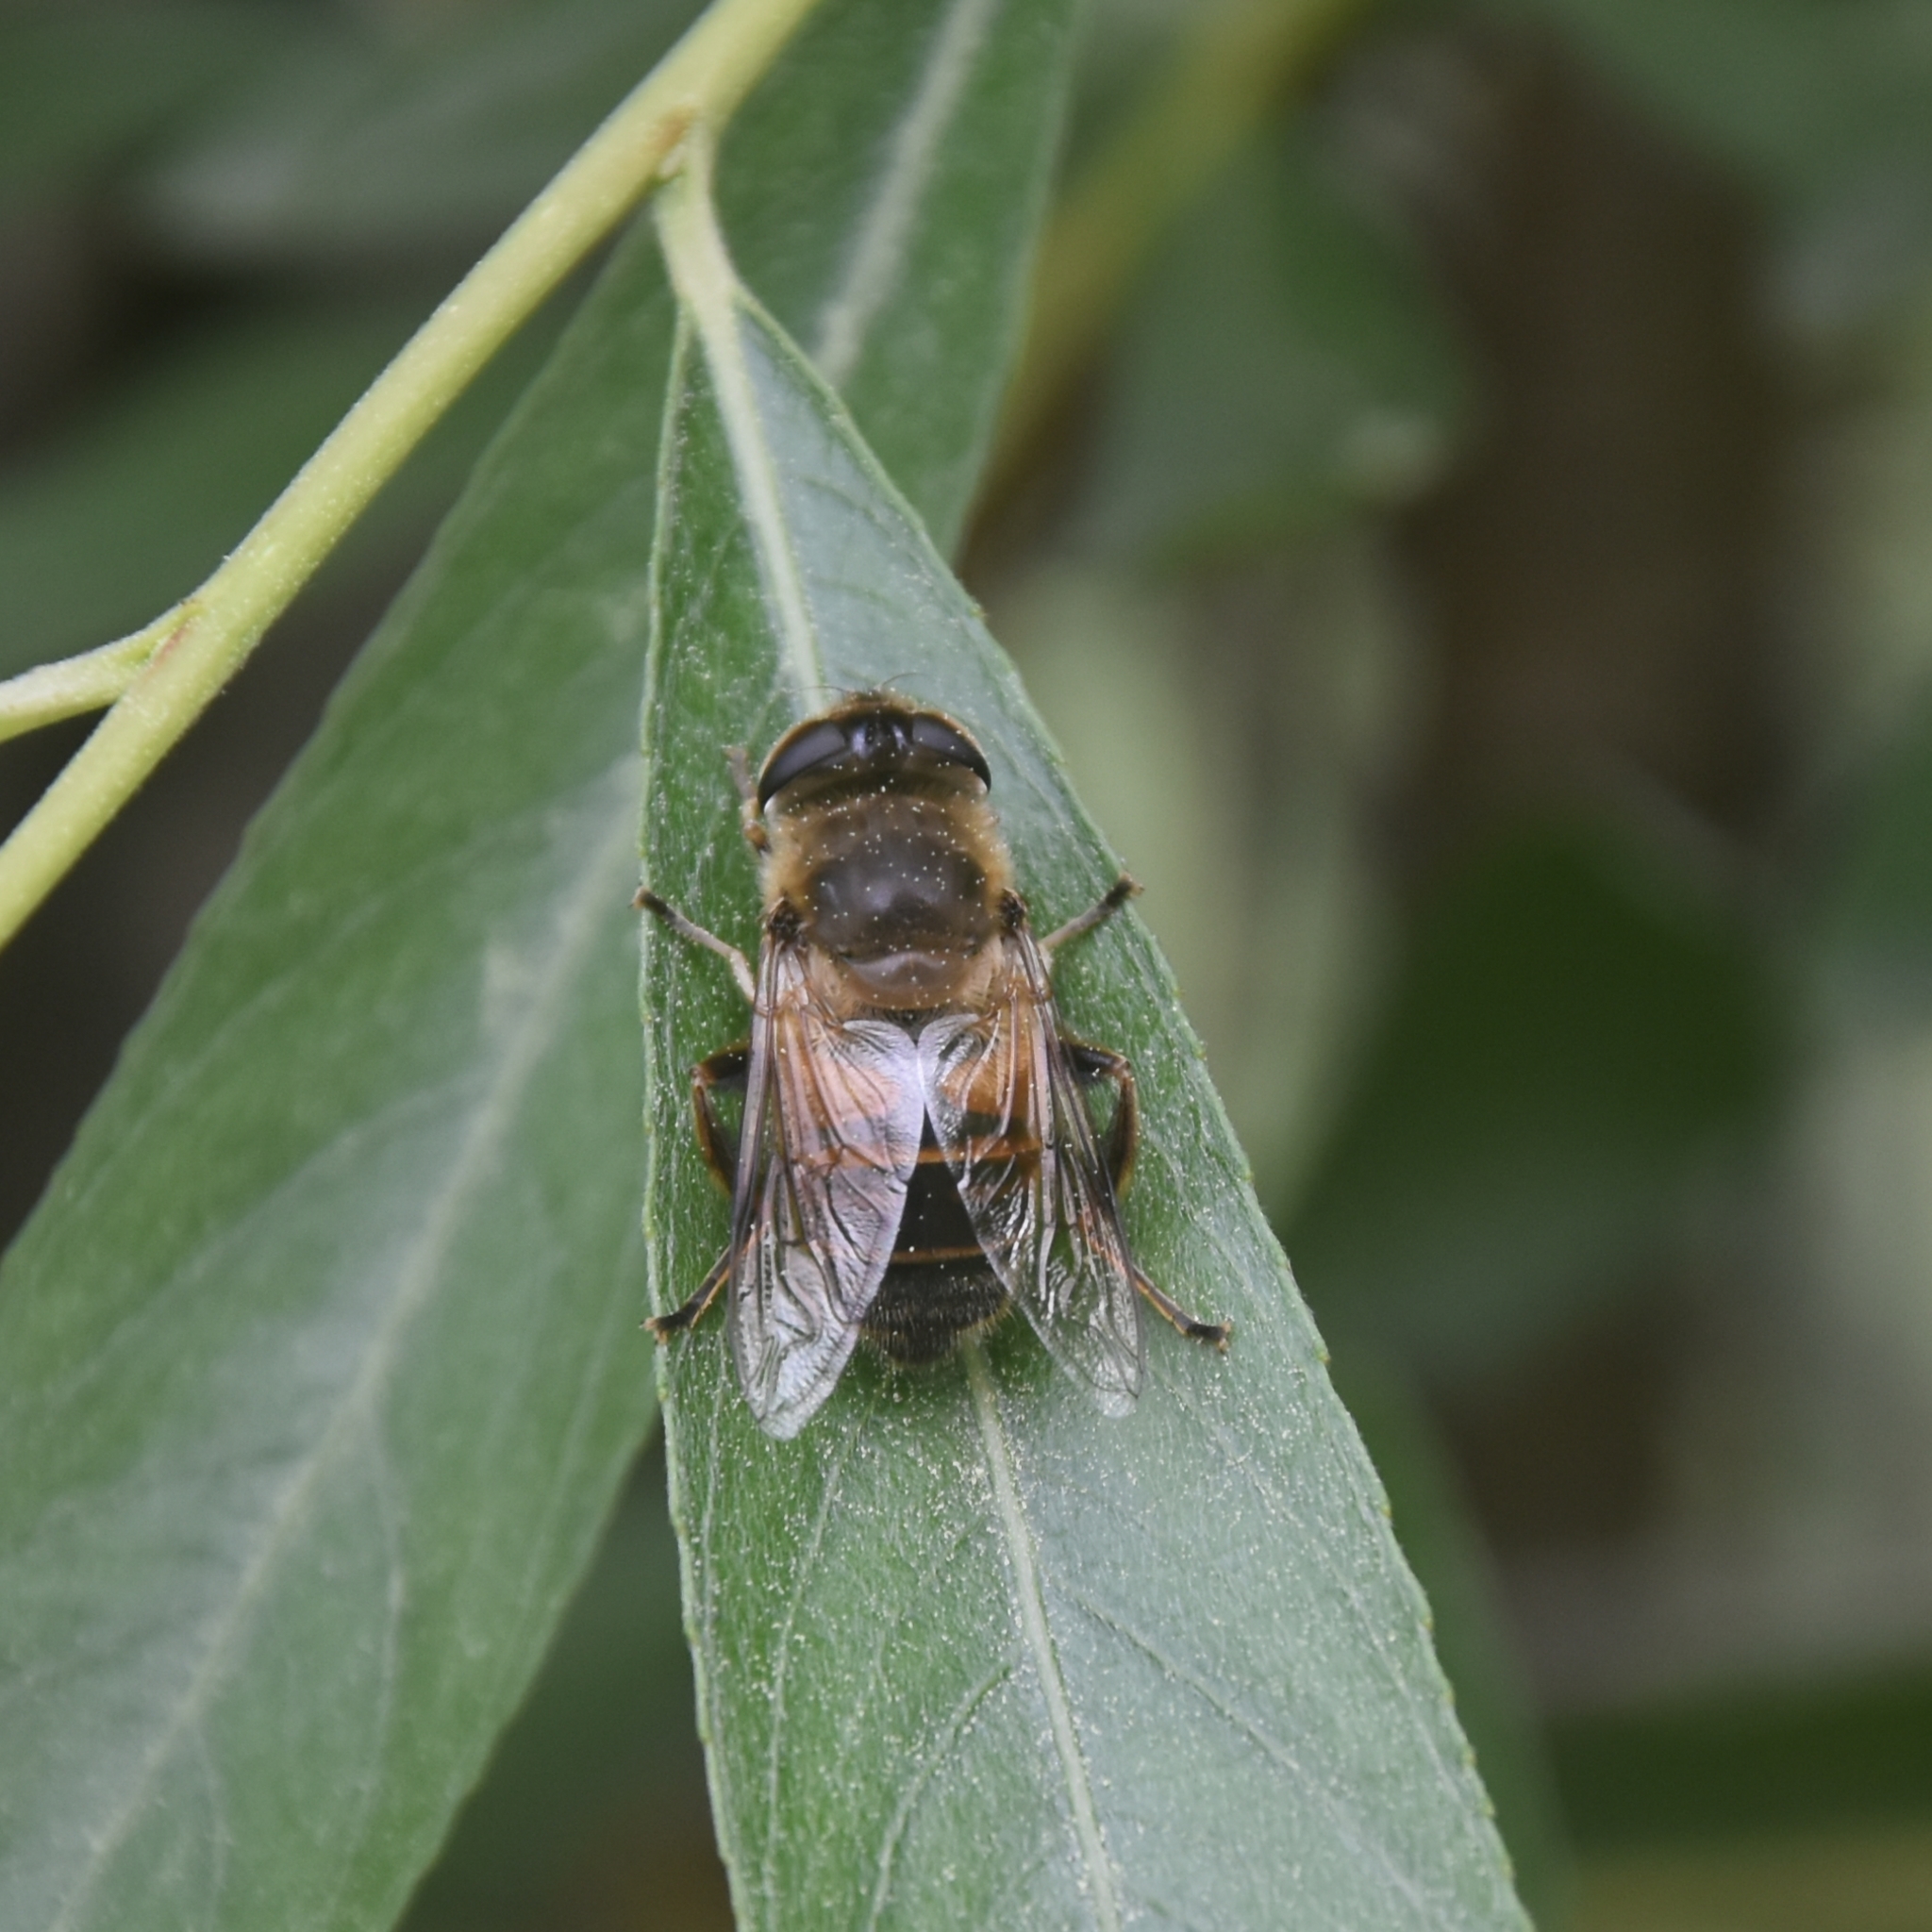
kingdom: Animalia
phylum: Arthropoda
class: Insecta
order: Diptera
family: Syrphidae
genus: Eristalis
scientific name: Eristalis tenax
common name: Drone fly
